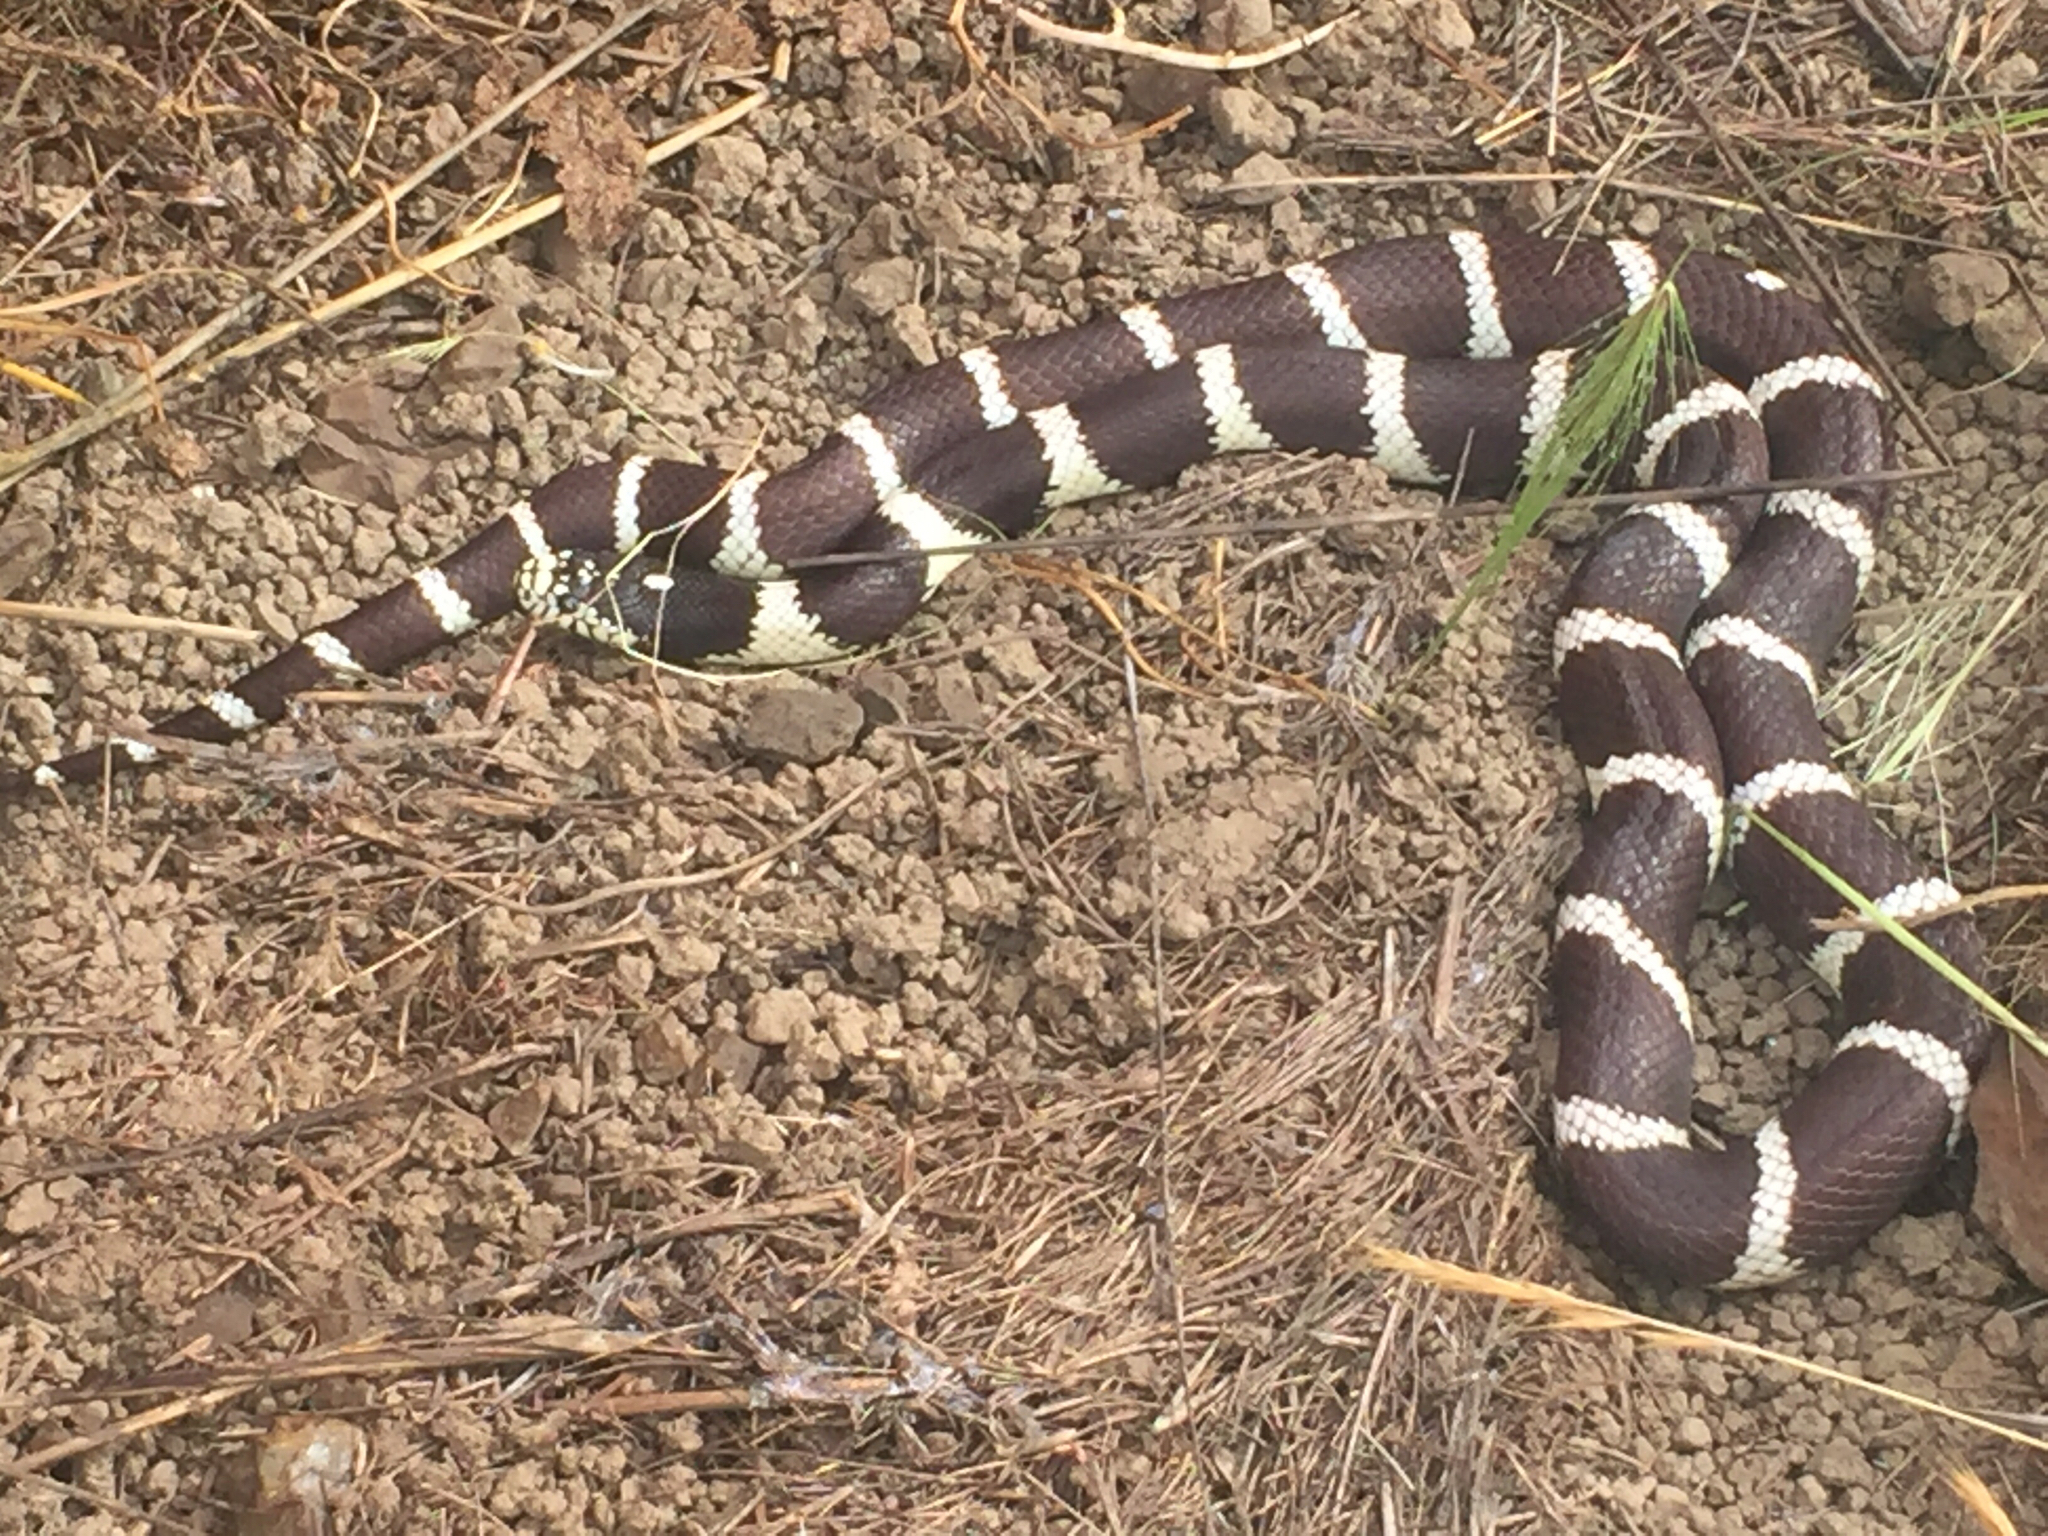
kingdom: Animalia
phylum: Chordata
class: Squamata
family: Colubridae
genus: Lampropeltis
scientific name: Lampropeltis californiae
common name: California kingsnake
